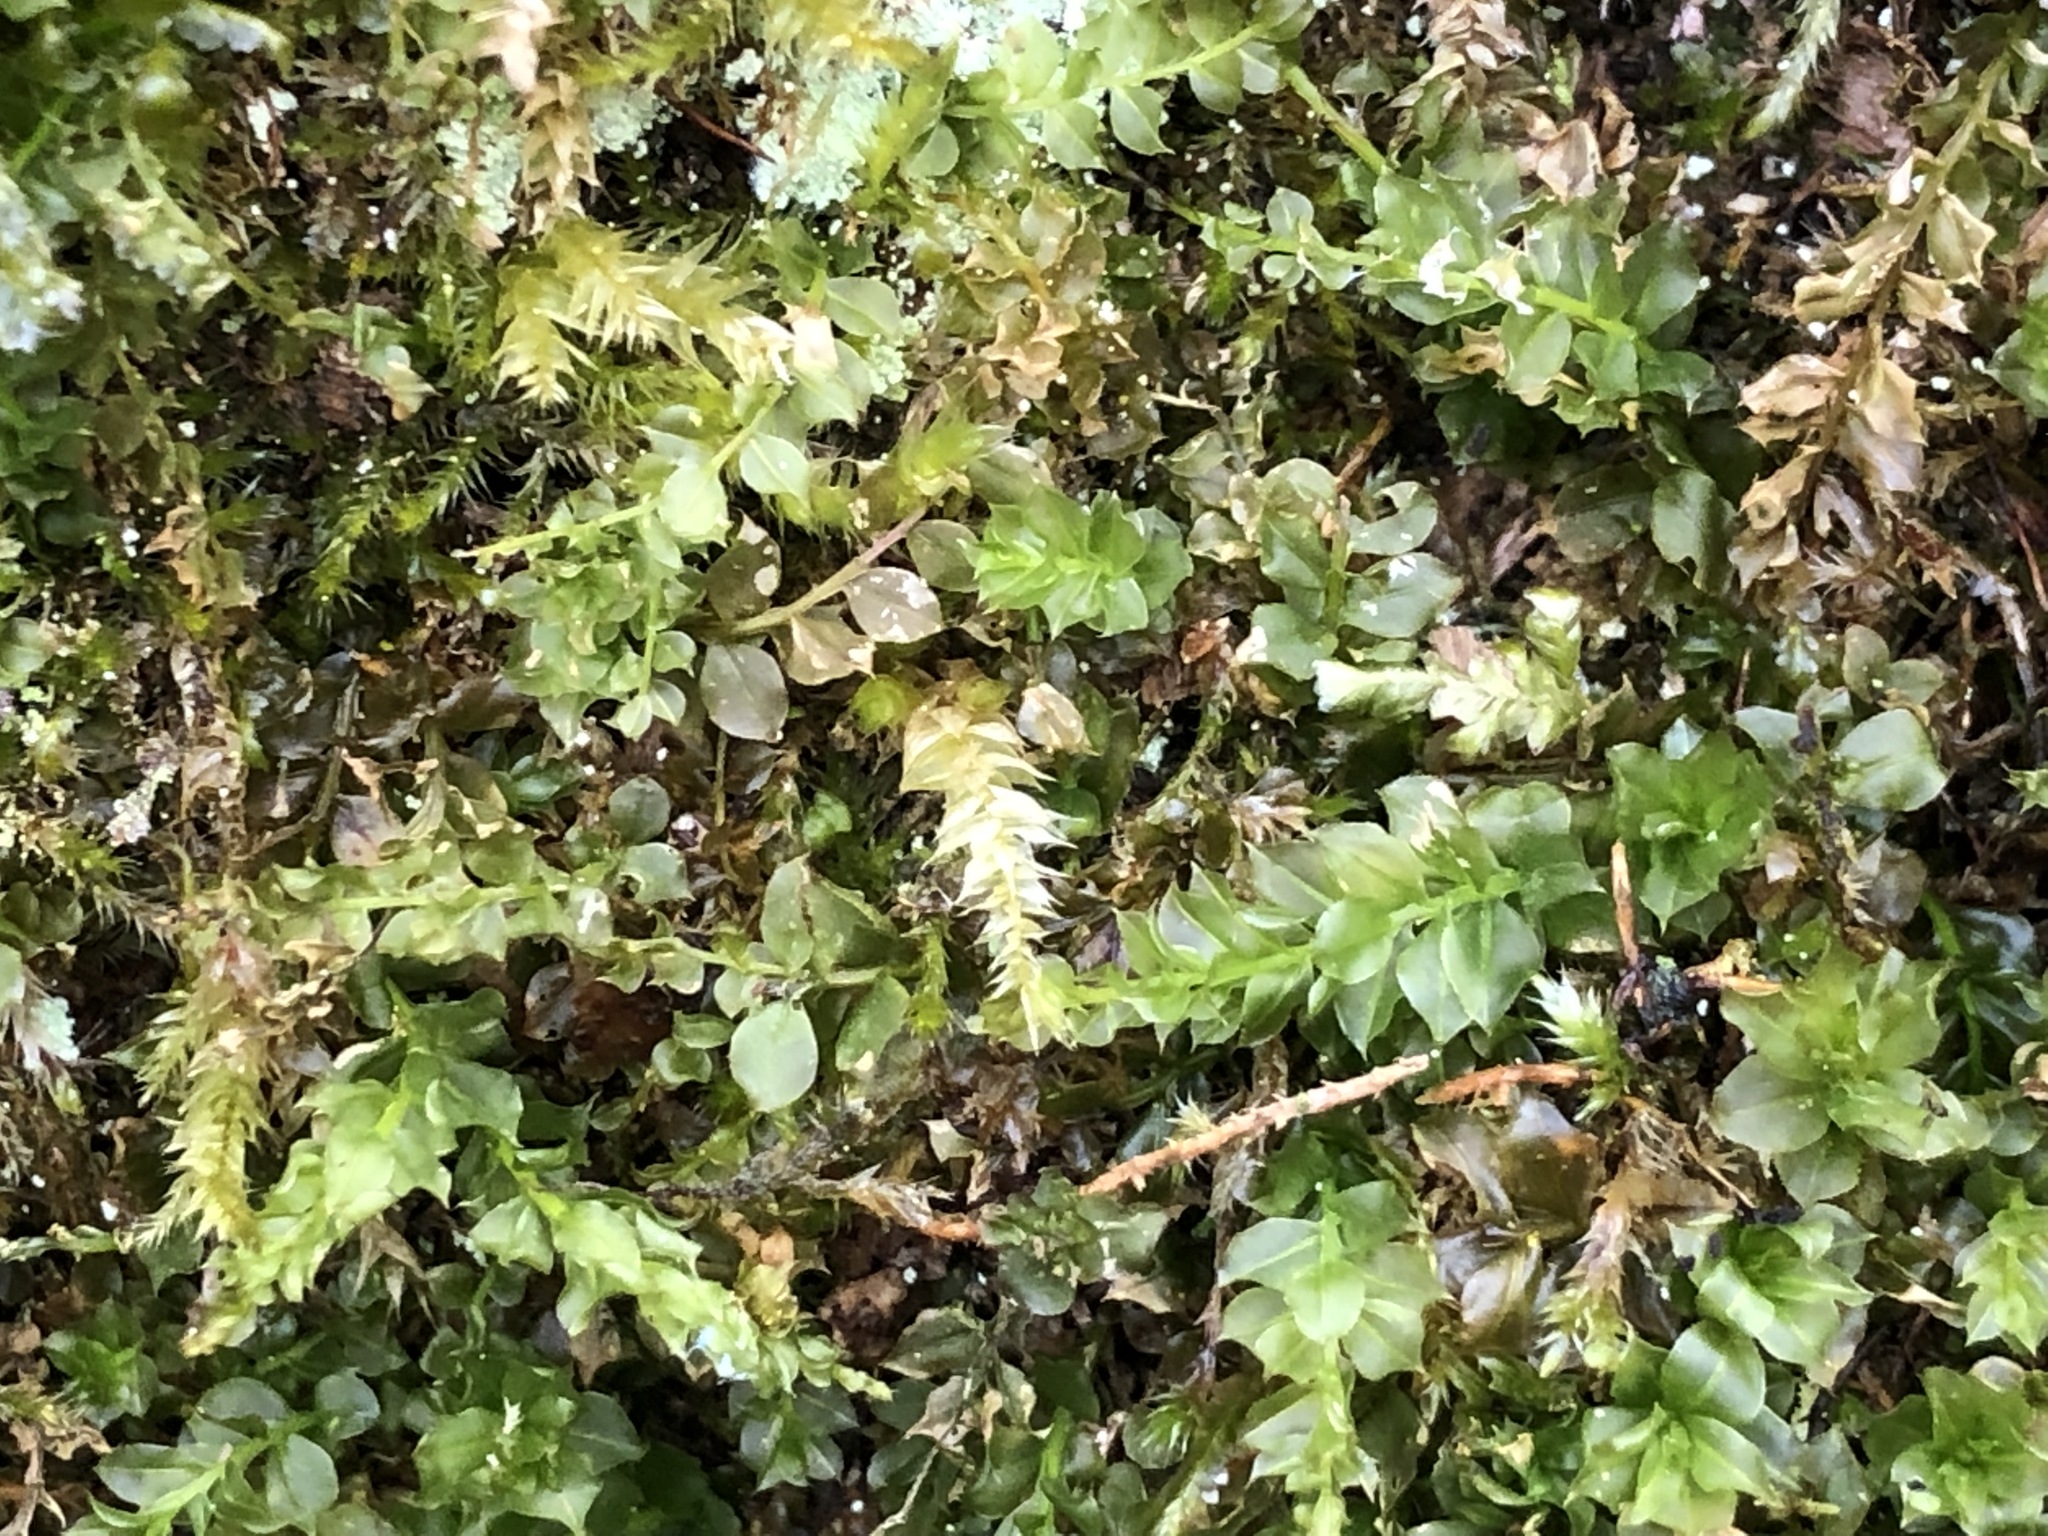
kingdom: Plantae
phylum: Bryophyta
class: Bryopsida
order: Bryales
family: Mniaceae
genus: Plagiomnium
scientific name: Plagiomnium cuspidatum
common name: Woodsy leafy moss
